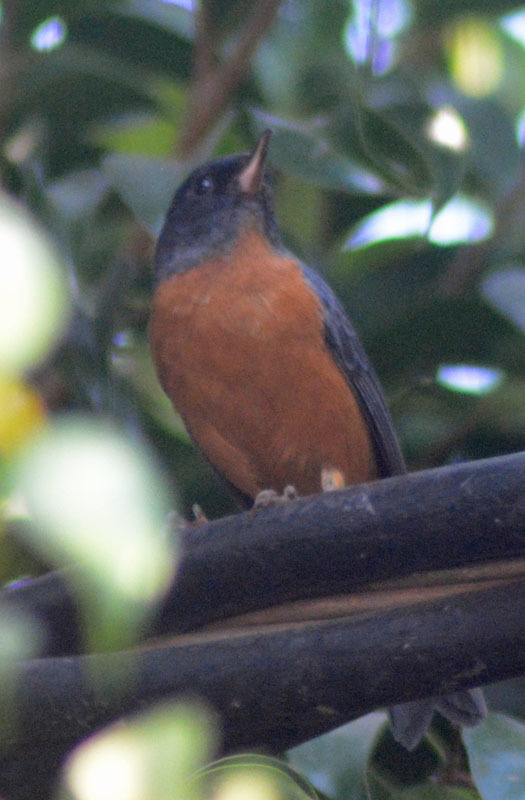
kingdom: Animalia
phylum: Chordata
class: Aves
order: Passeriformes
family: Thraupidae
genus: Diglossa
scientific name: Diglossa baritula
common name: Cinnamon-bellied flowerpiercer
